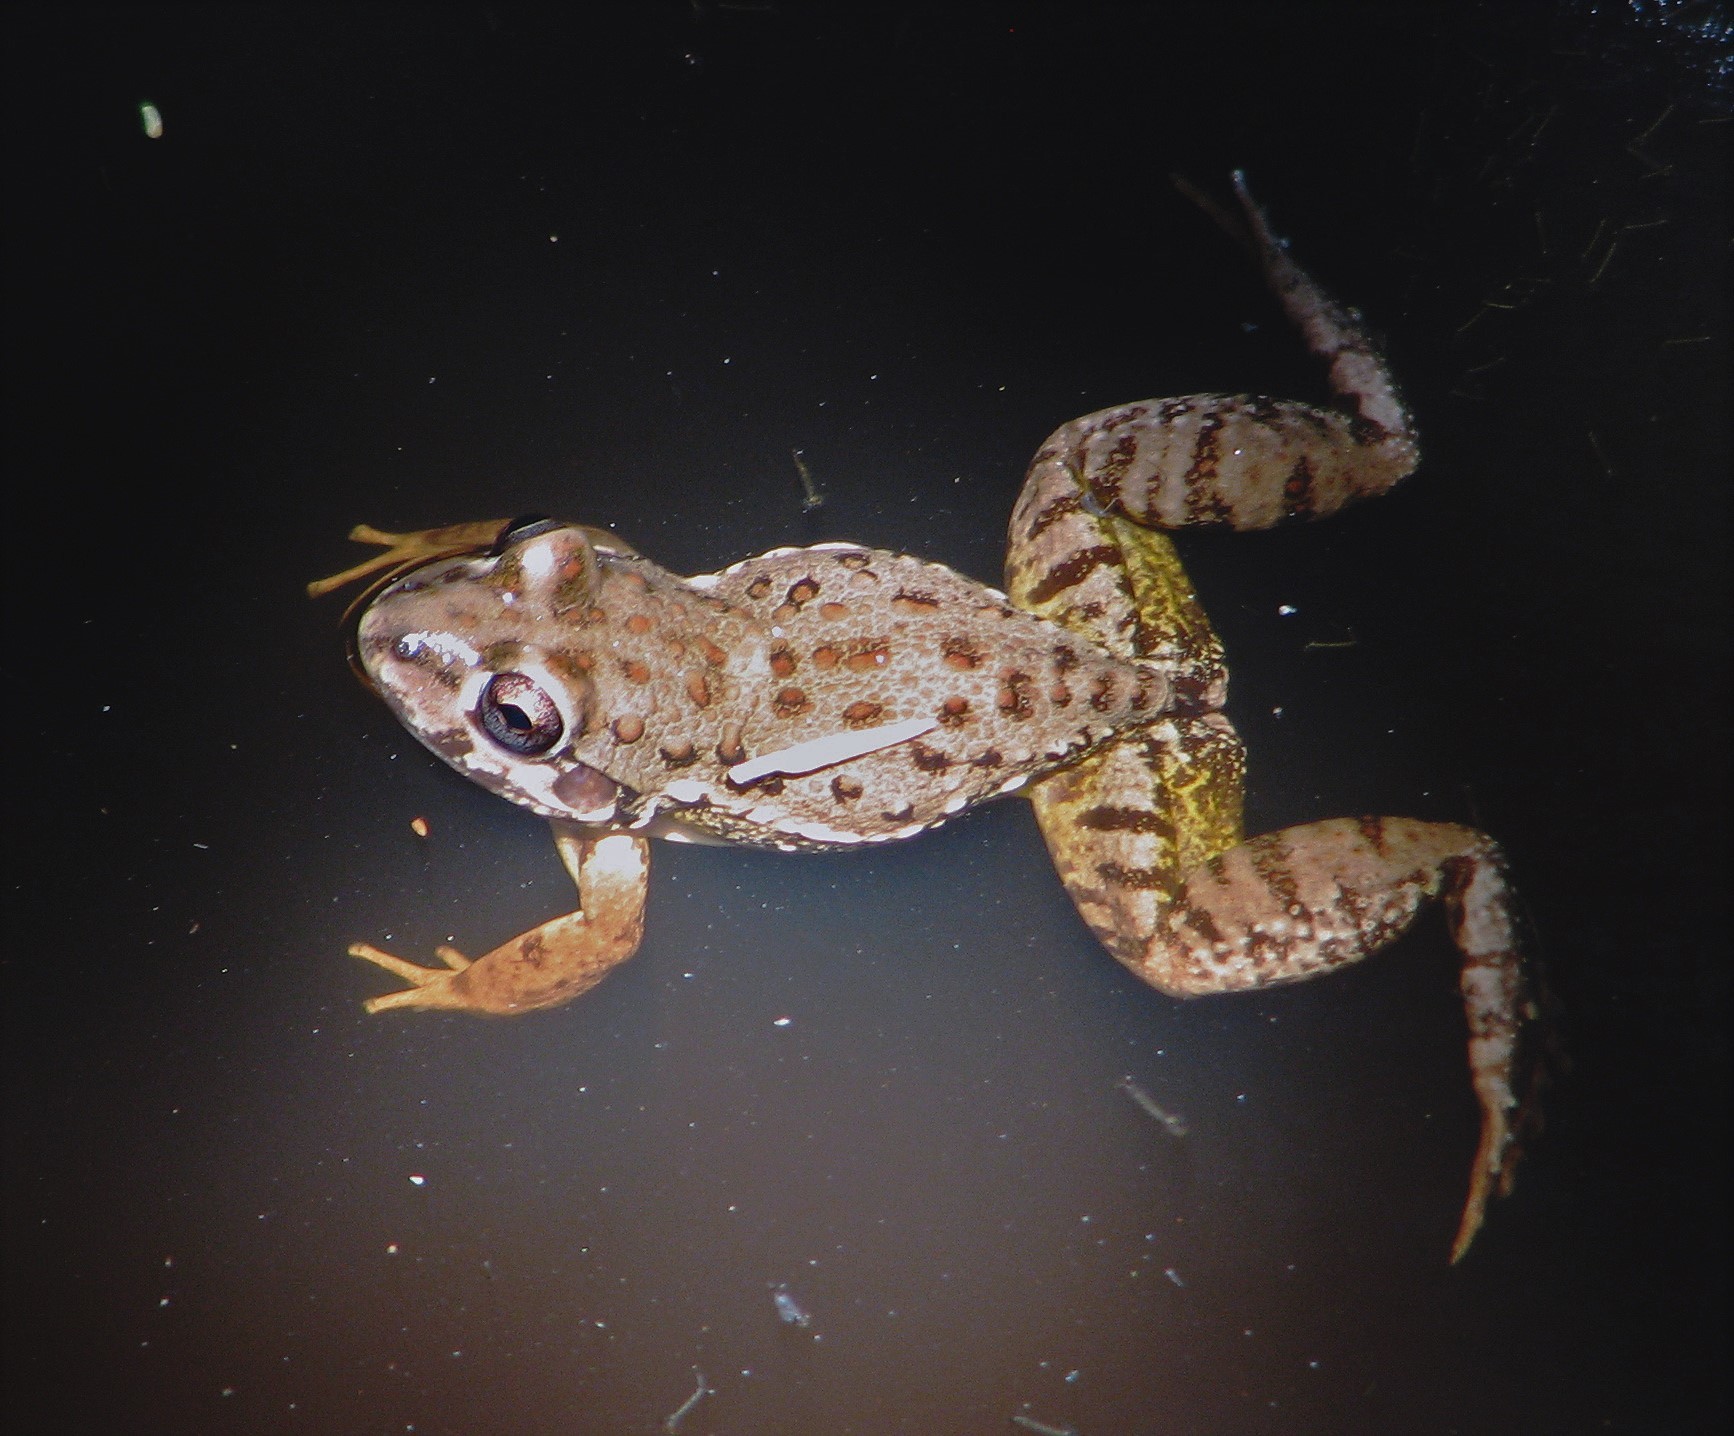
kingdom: Animalia
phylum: Chordata
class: Amphibia
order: Anura
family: Leptodactylidae
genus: Leptodactylus
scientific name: Leptodactylus bufonius
